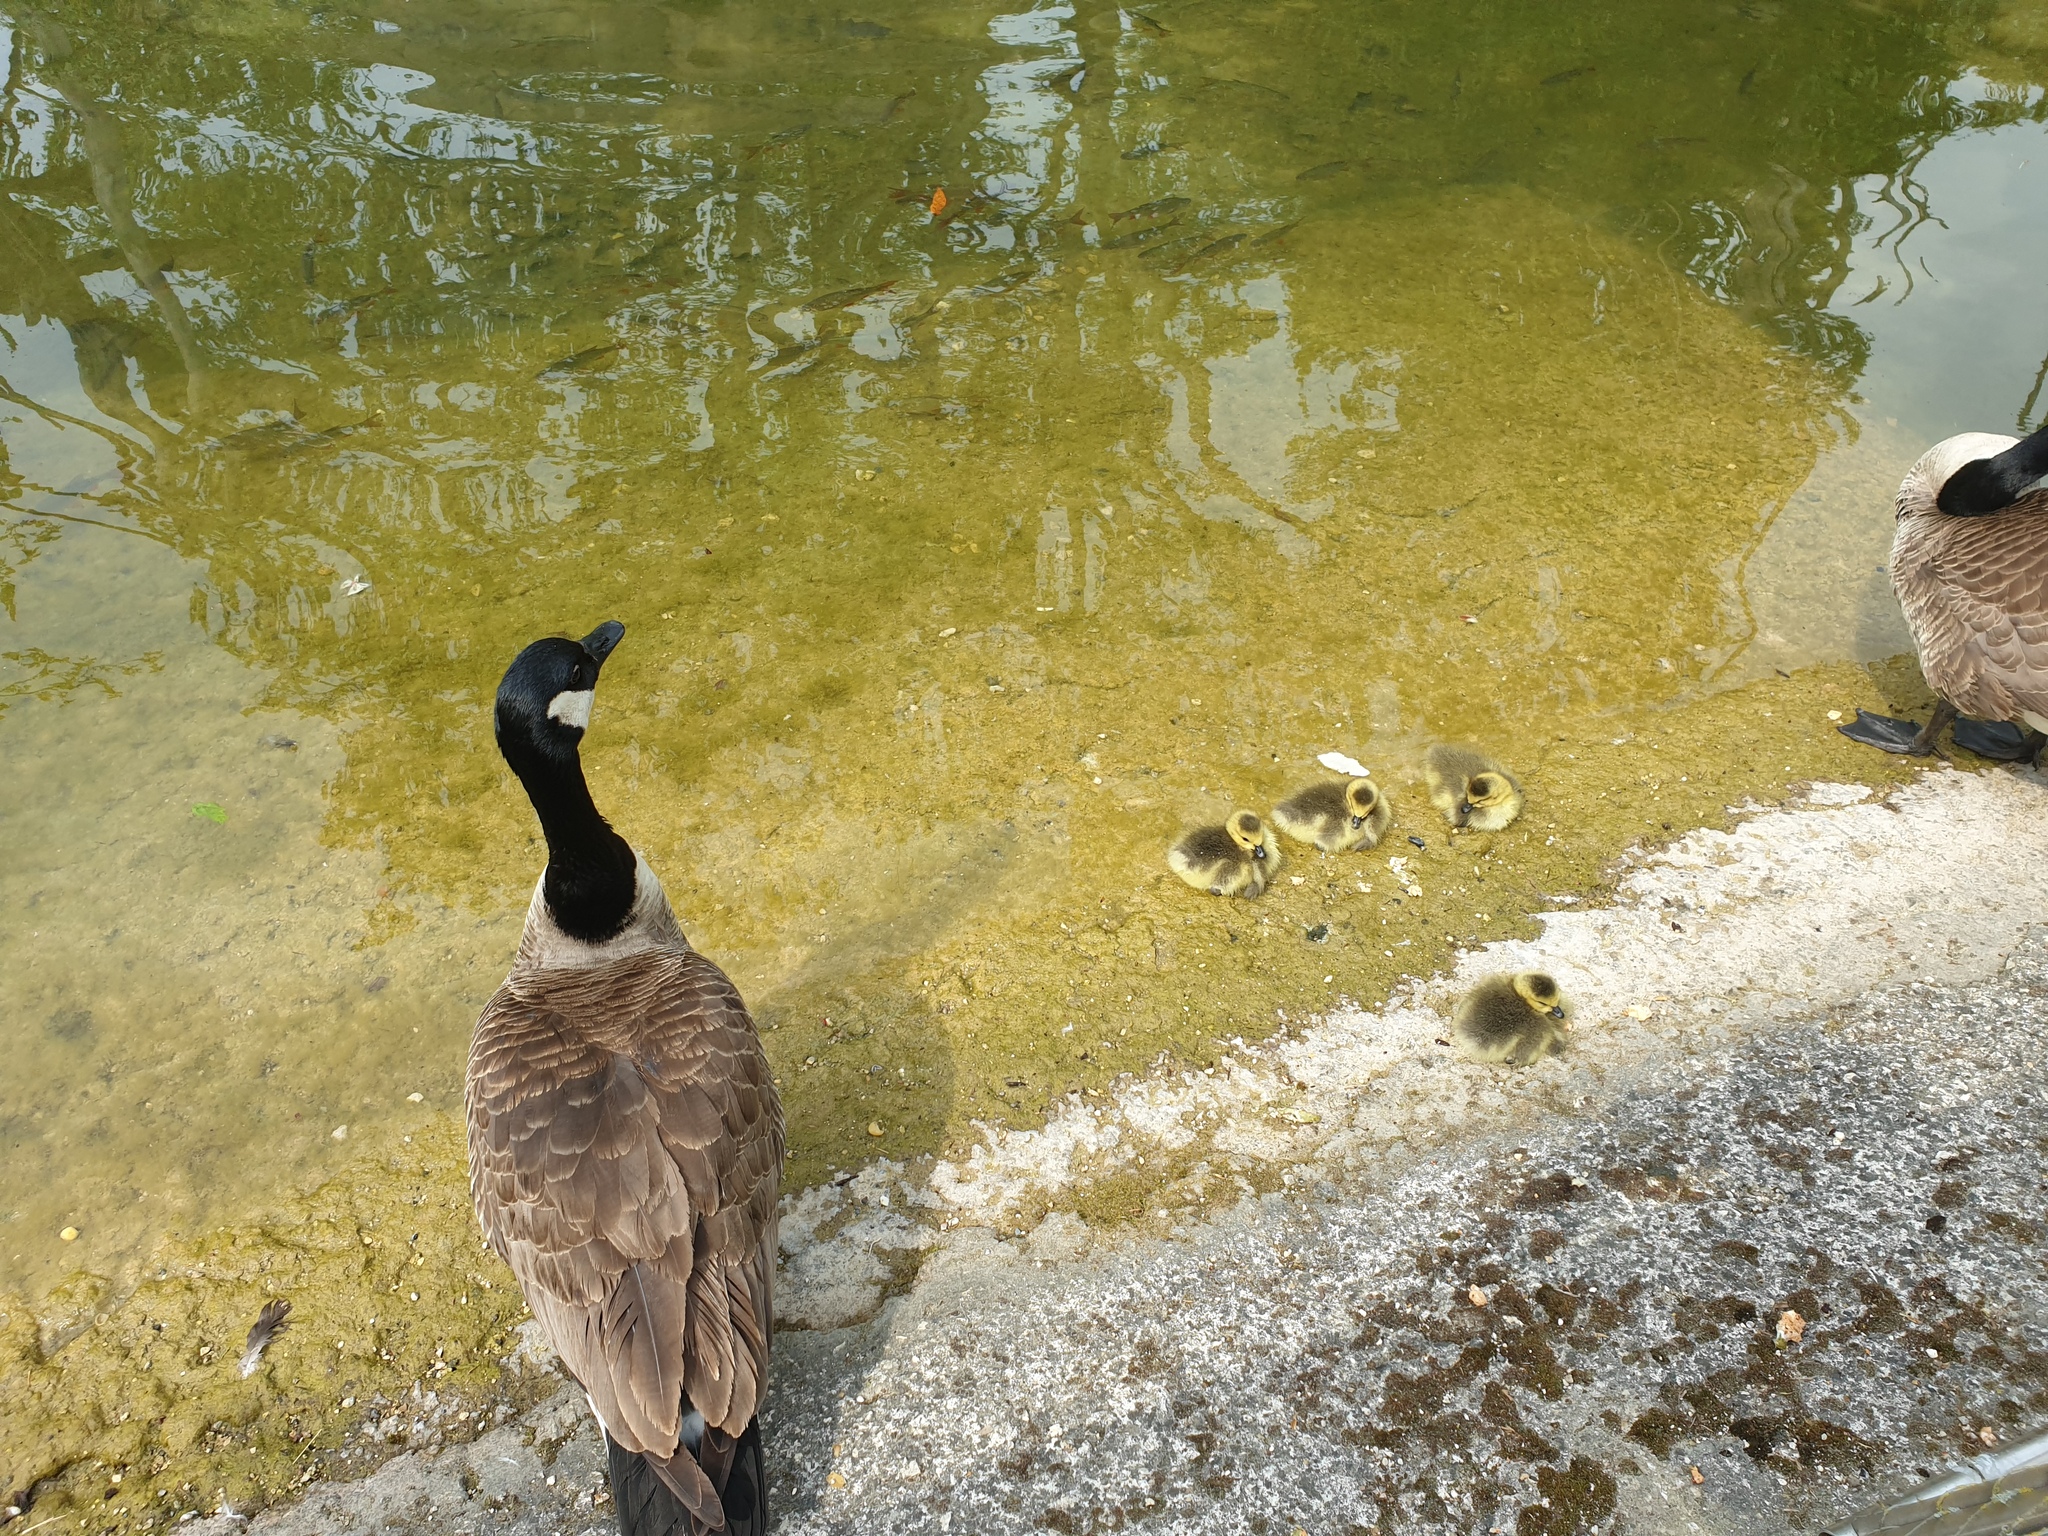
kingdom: Animalia
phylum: Chordata
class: Aves
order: Anseriformes
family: Anatidae
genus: Branta
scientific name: Branta canadensis
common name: Canada goose
